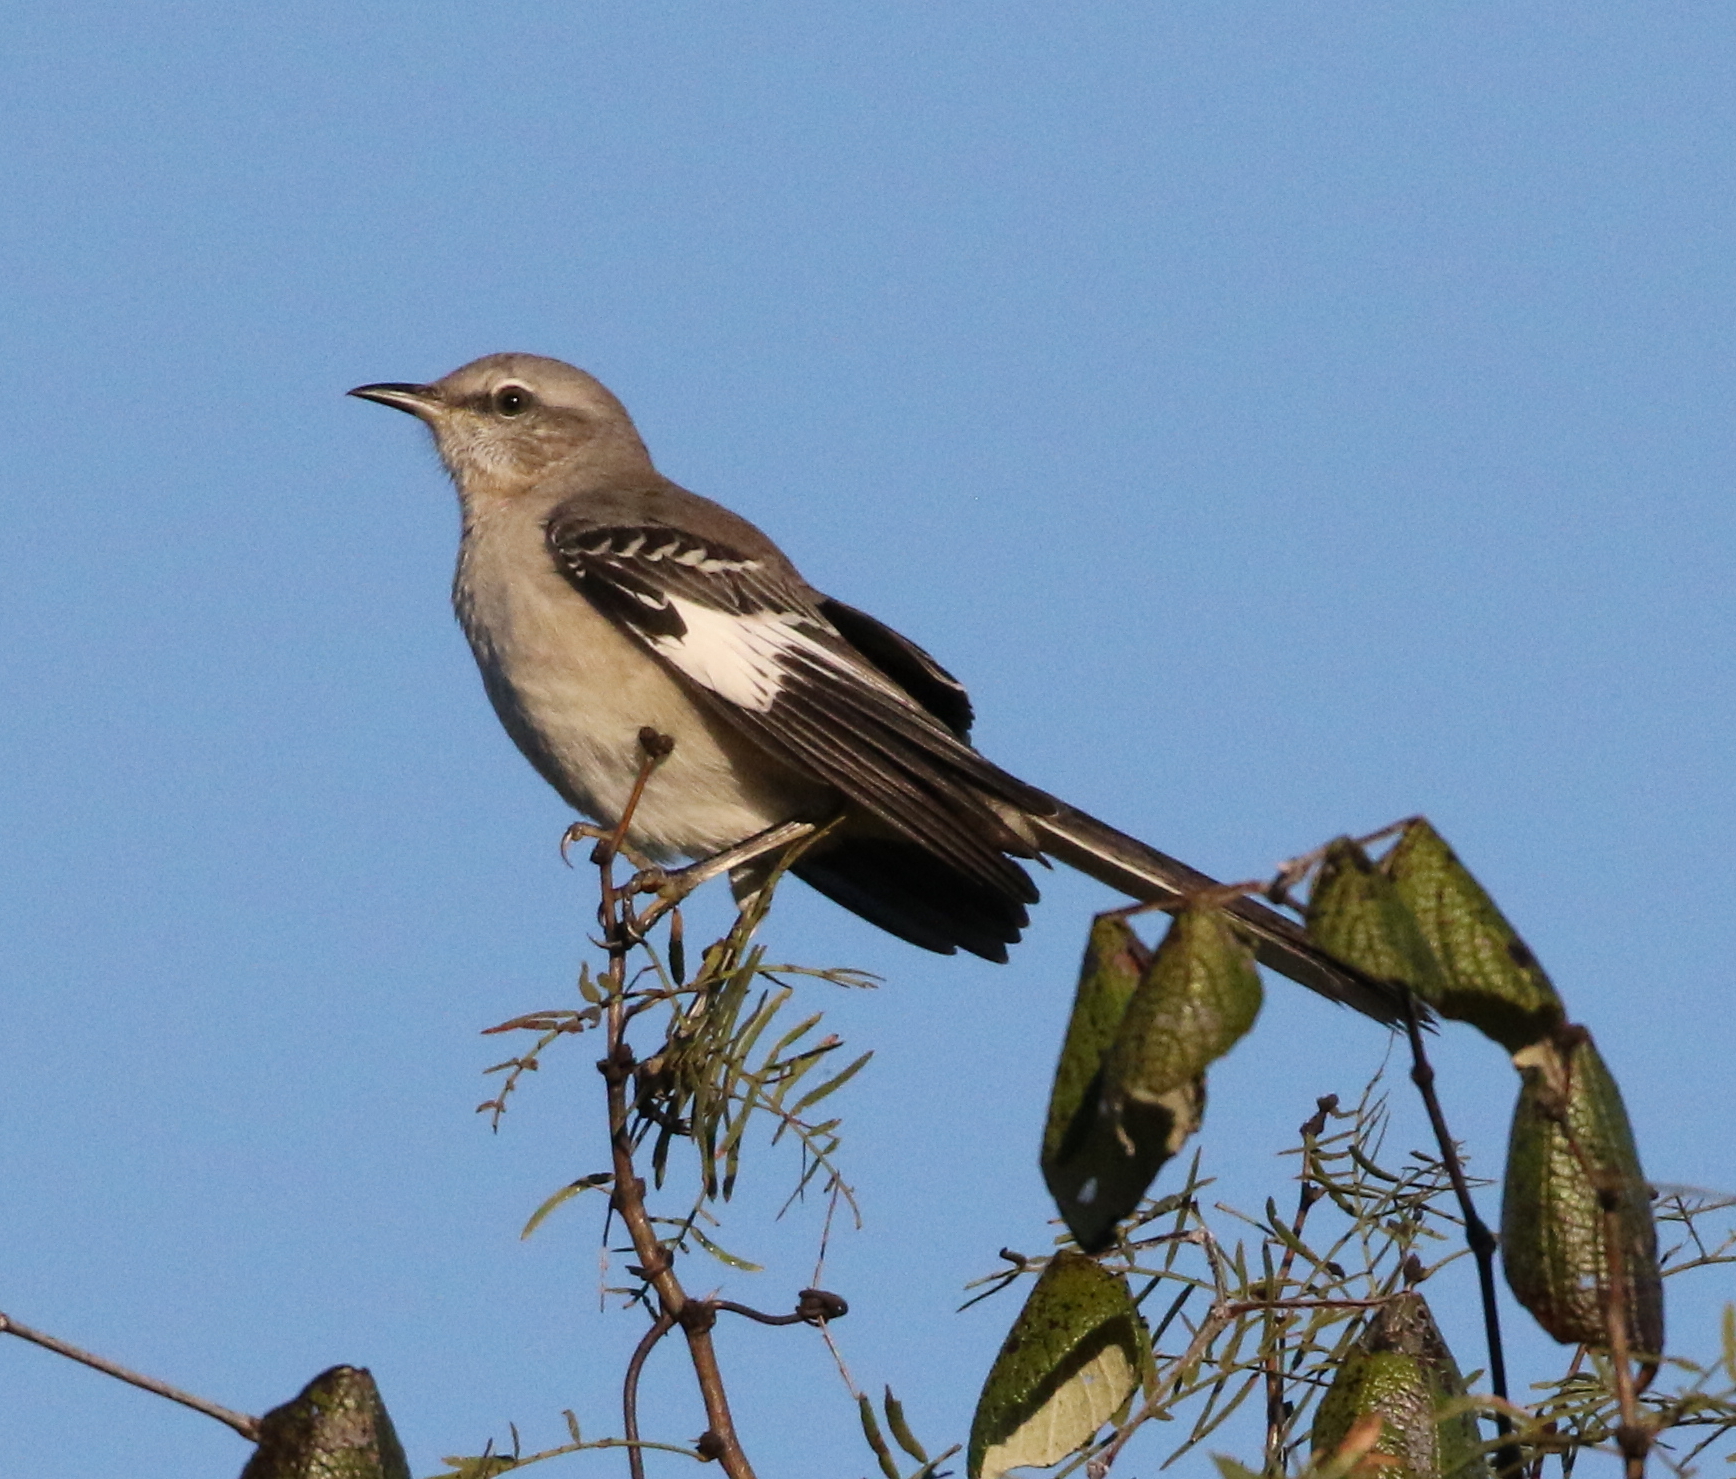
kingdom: Animalia
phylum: Chordata
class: Aves
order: Passeriformes
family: Mimidae
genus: Mimus
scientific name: Mimus polyglottos
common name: Northern mockingbird
